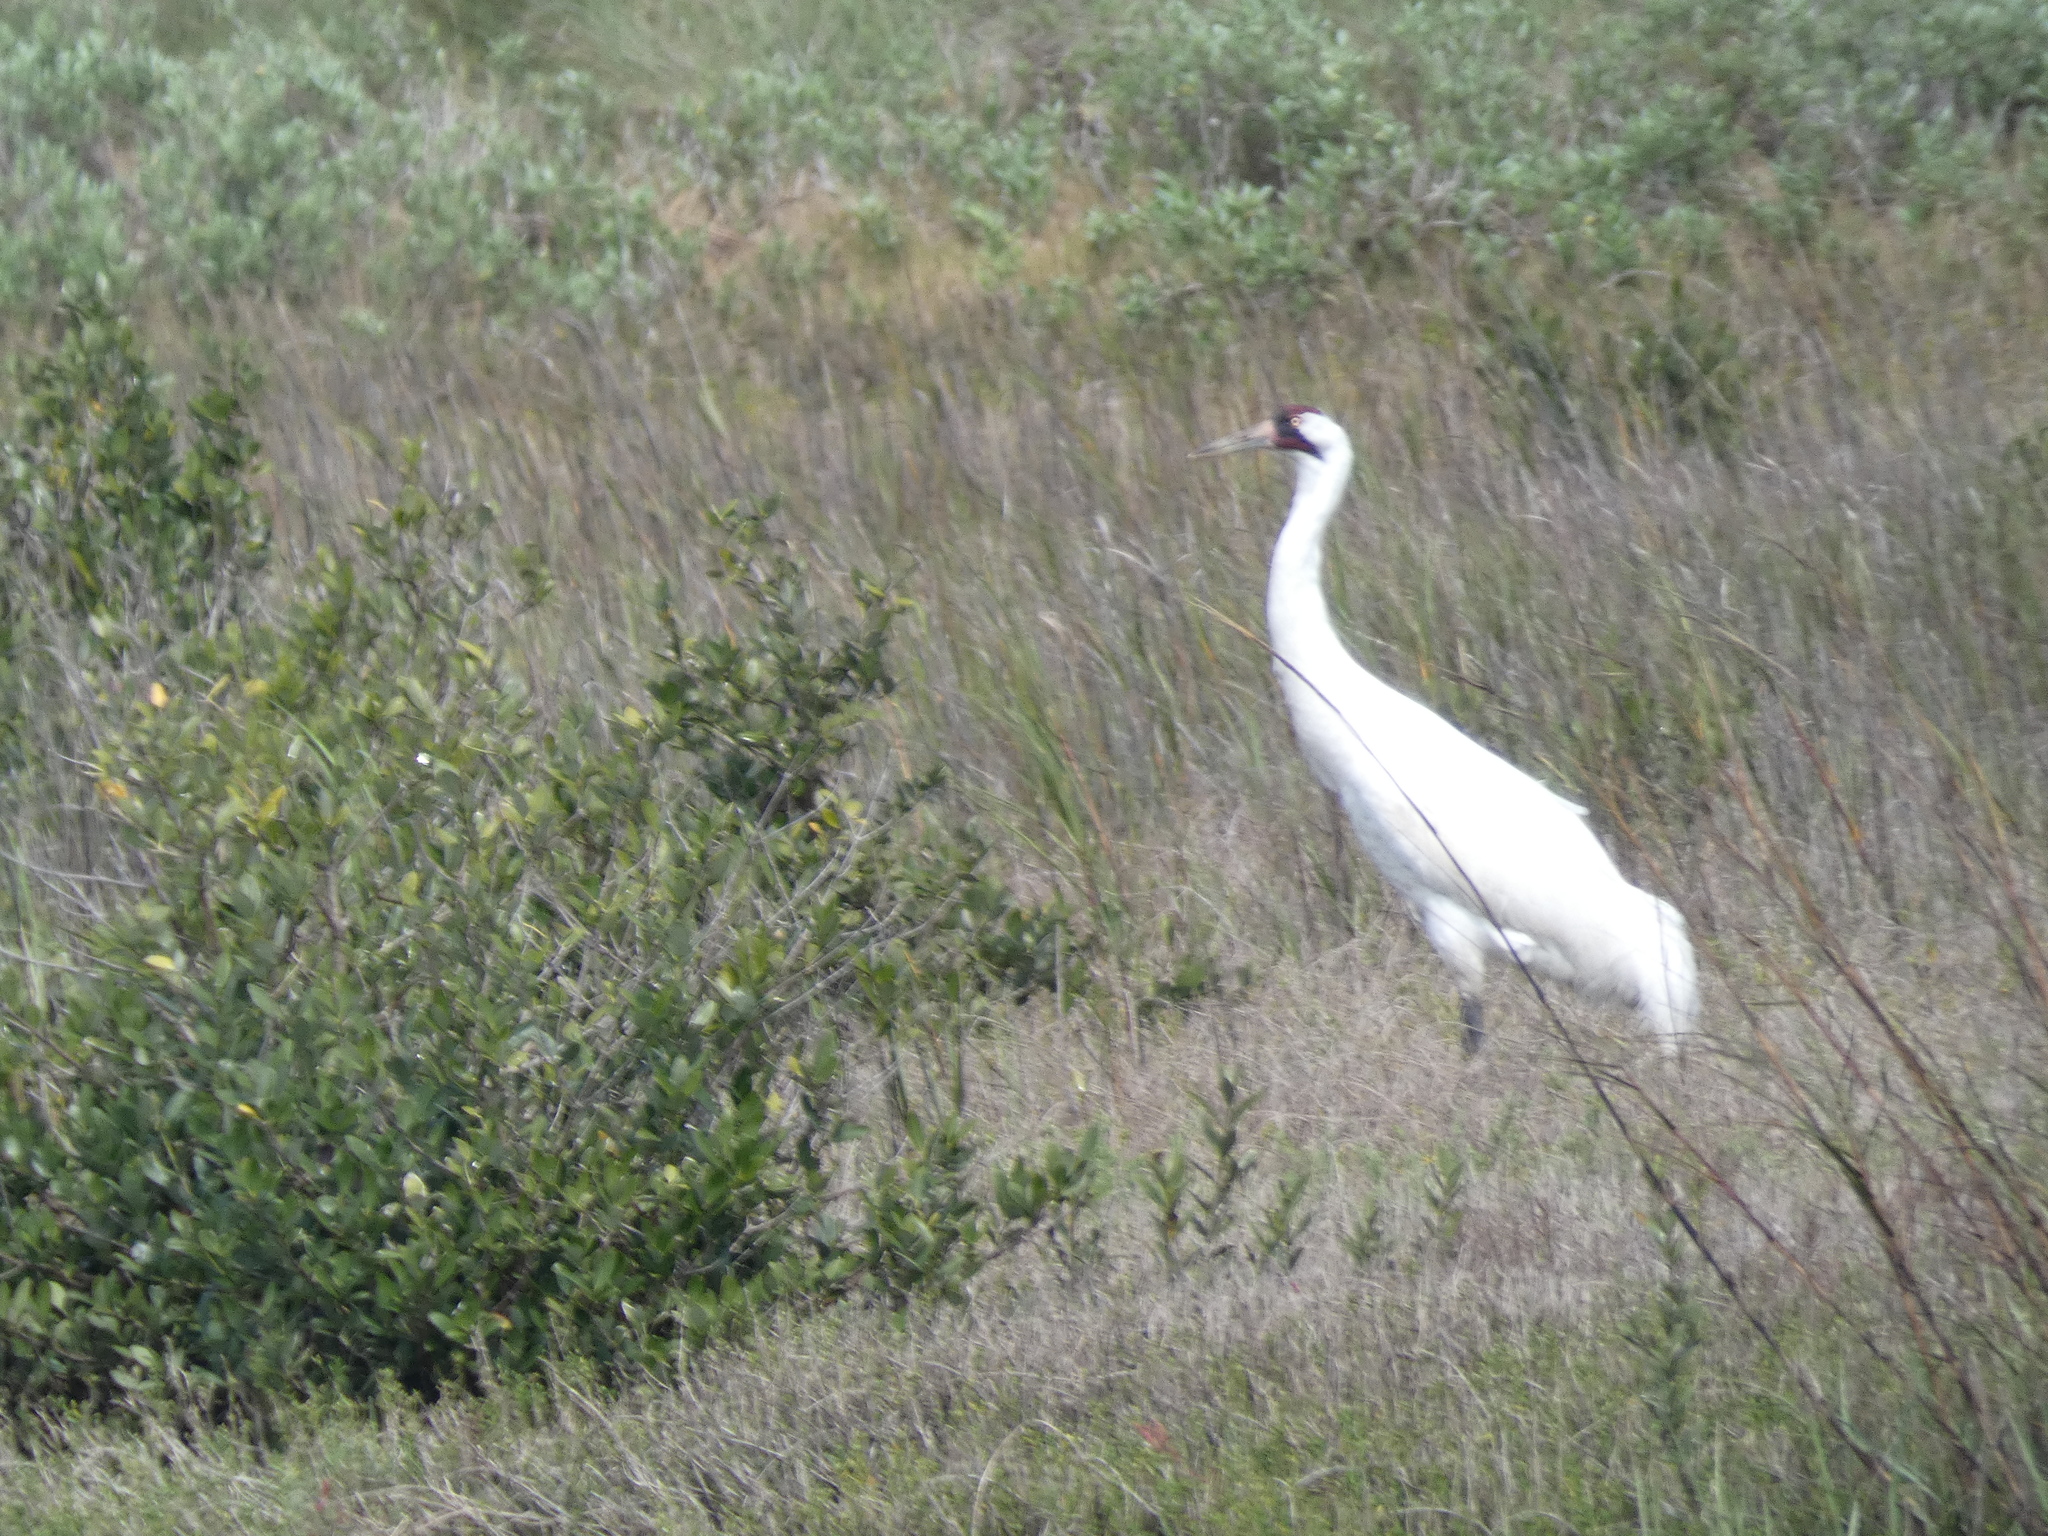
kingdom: Animalia
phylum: Chordata
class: Aves
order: Gruiformes
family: Gruidae
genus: Grus
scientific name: Grus americana
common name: Whooping crane
